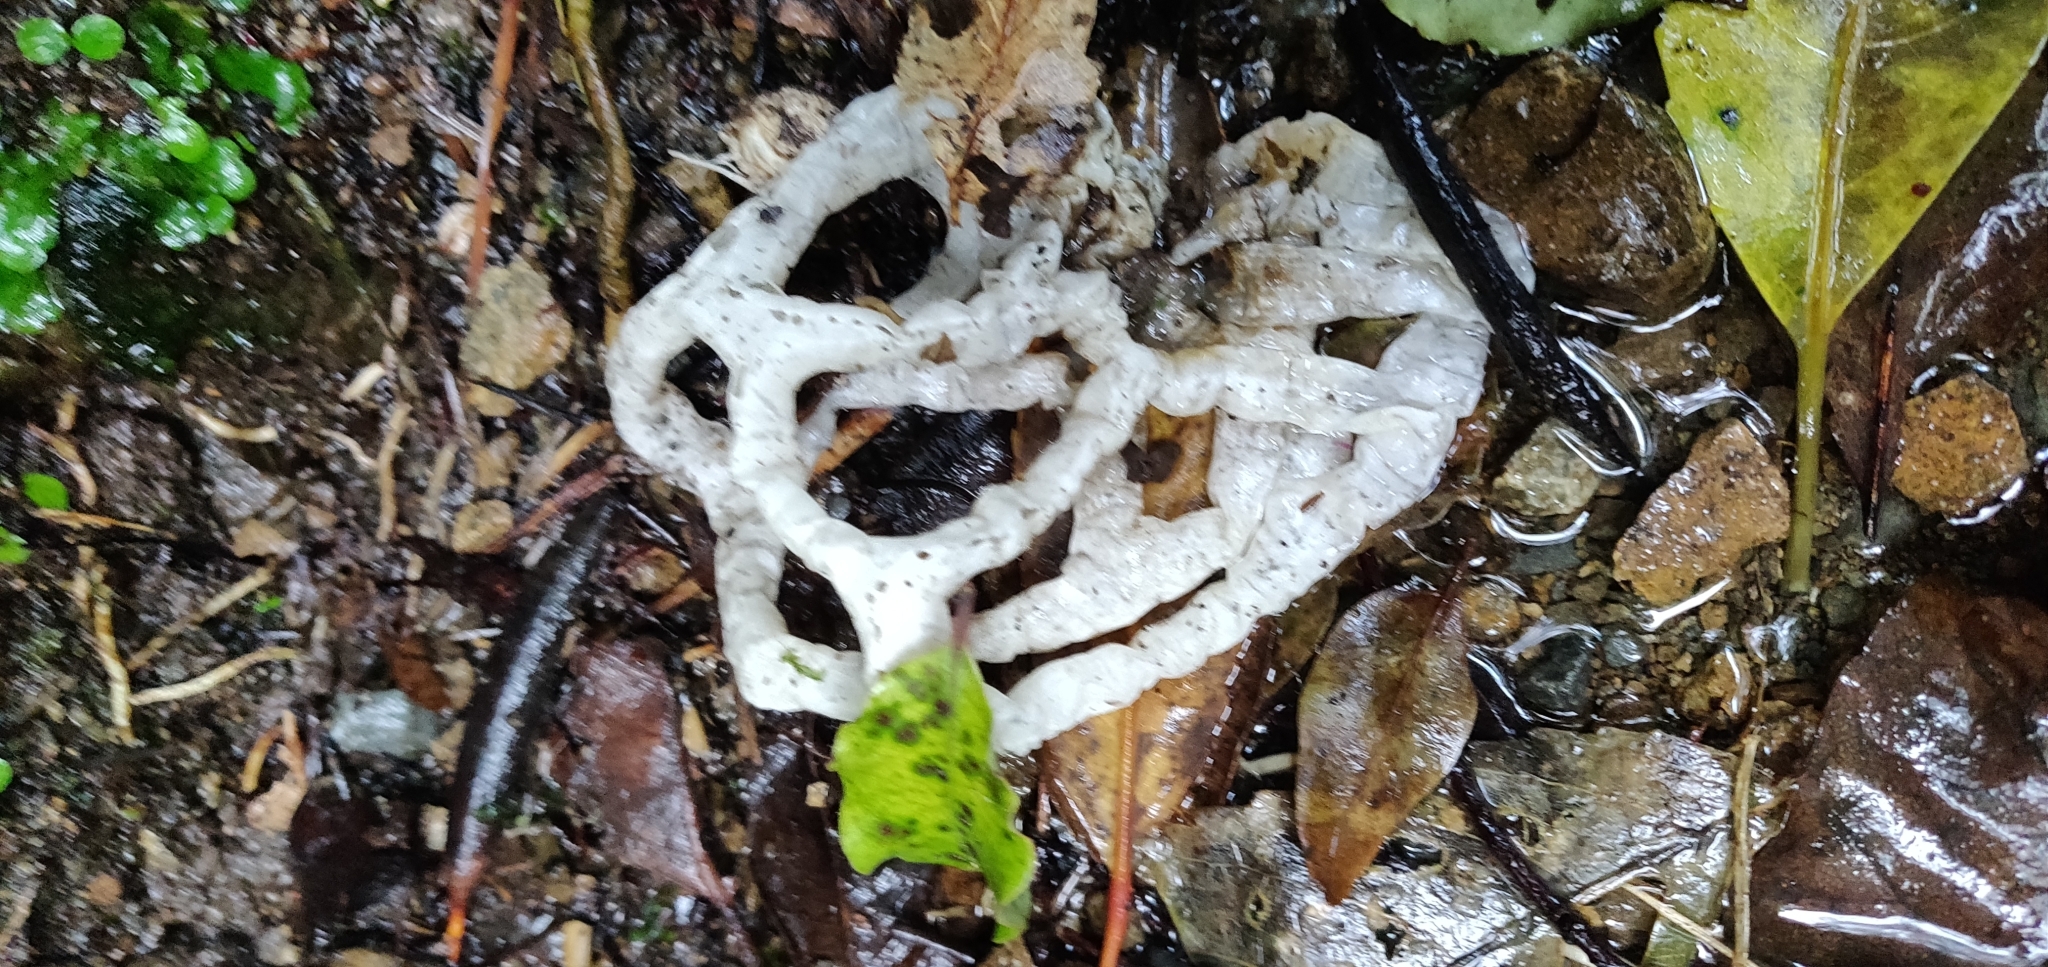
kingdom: Fungi
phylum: Basidiomycota
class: Agaricomycetes
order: Phallales
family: Phallaceae
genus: Ileodictyon
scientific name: Ileodictyon cibarium
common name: Basket fungus
